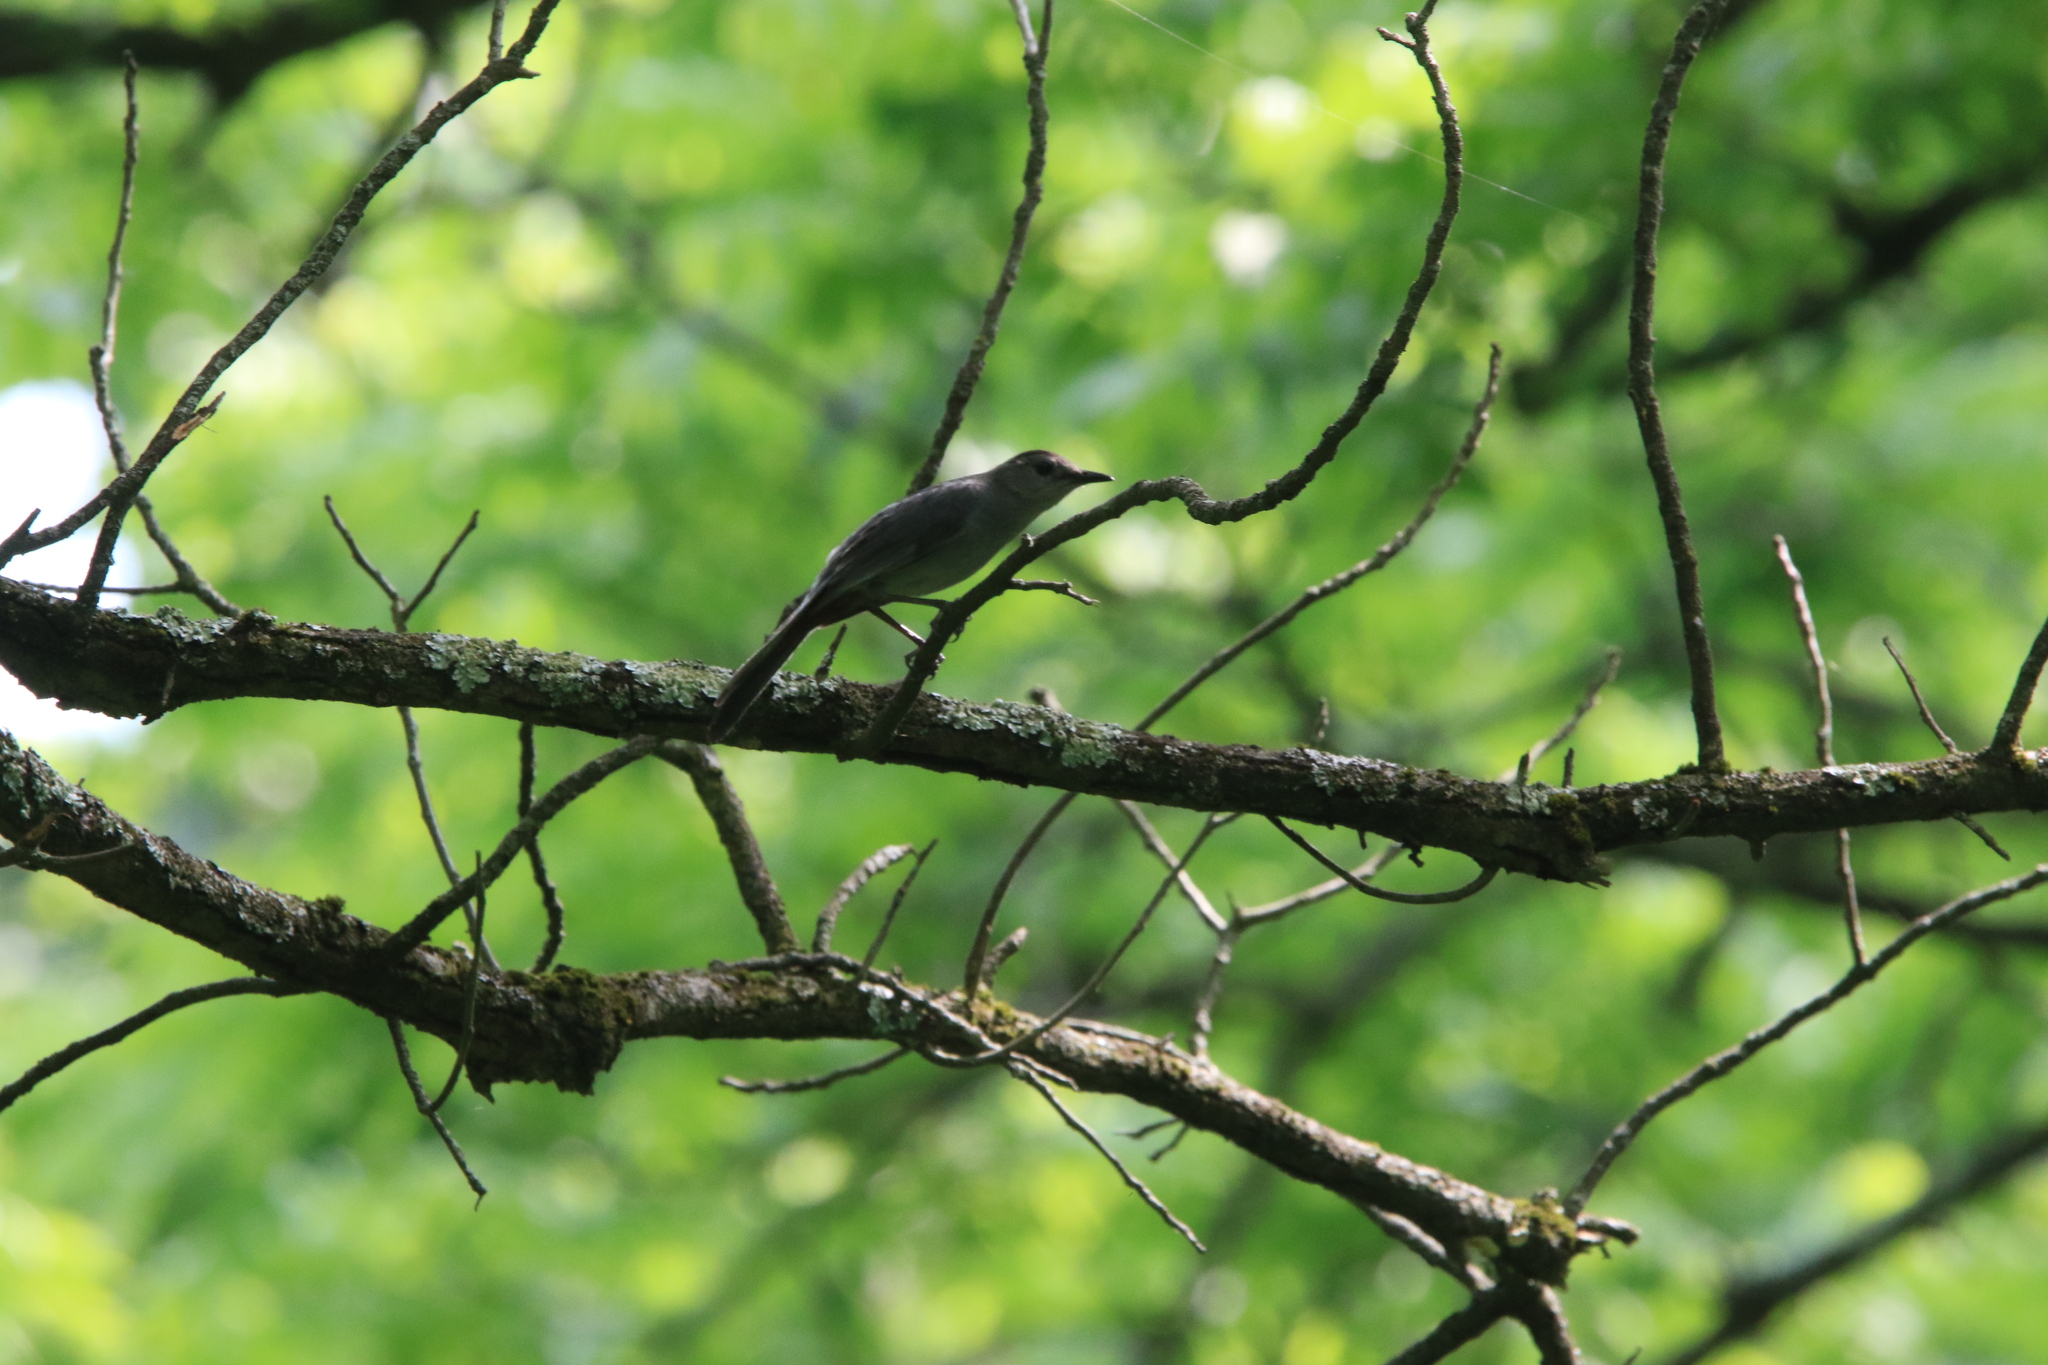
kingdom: Animalia
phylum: Chordata
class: Aves
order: Passeriformes
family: Mimidae
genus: Dumetella
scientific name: Dumetella carolinensis
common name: Gray catbird
